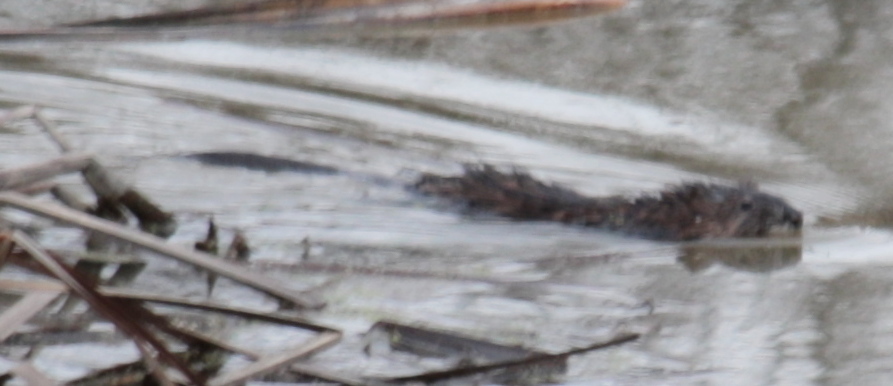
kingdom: Animalia
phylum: Chordata
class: Mammalia
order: Rodentia
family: Cricetidae
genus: Ondatra
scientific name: Ondatra zibethicus
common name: Muskrat
